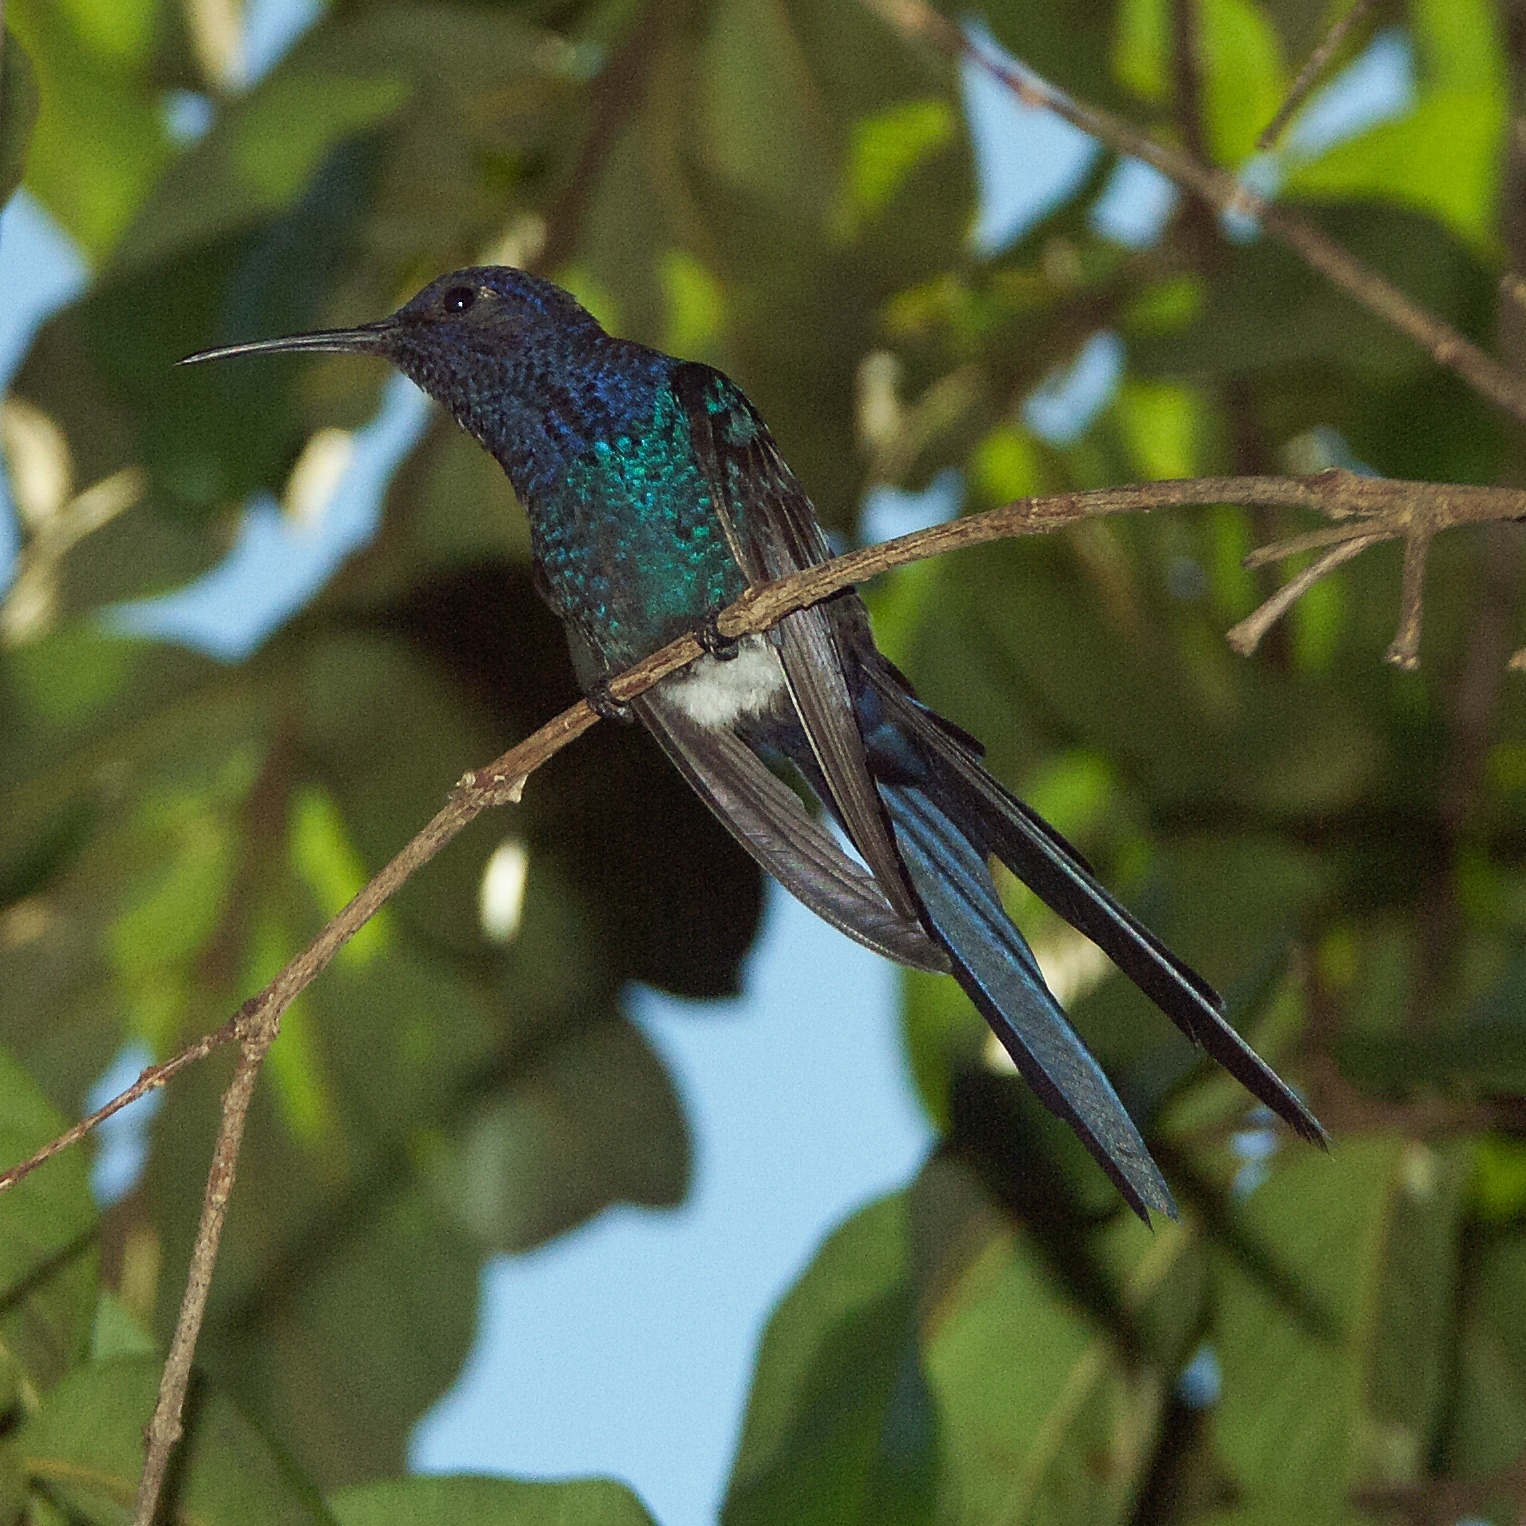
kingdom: Animalia
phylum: Chordata
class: Aves
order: Apodiformes
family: Trochilidae
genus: Eupetomena
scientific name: Eupetomena macroura
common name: Swallow-tailed hummingbird
